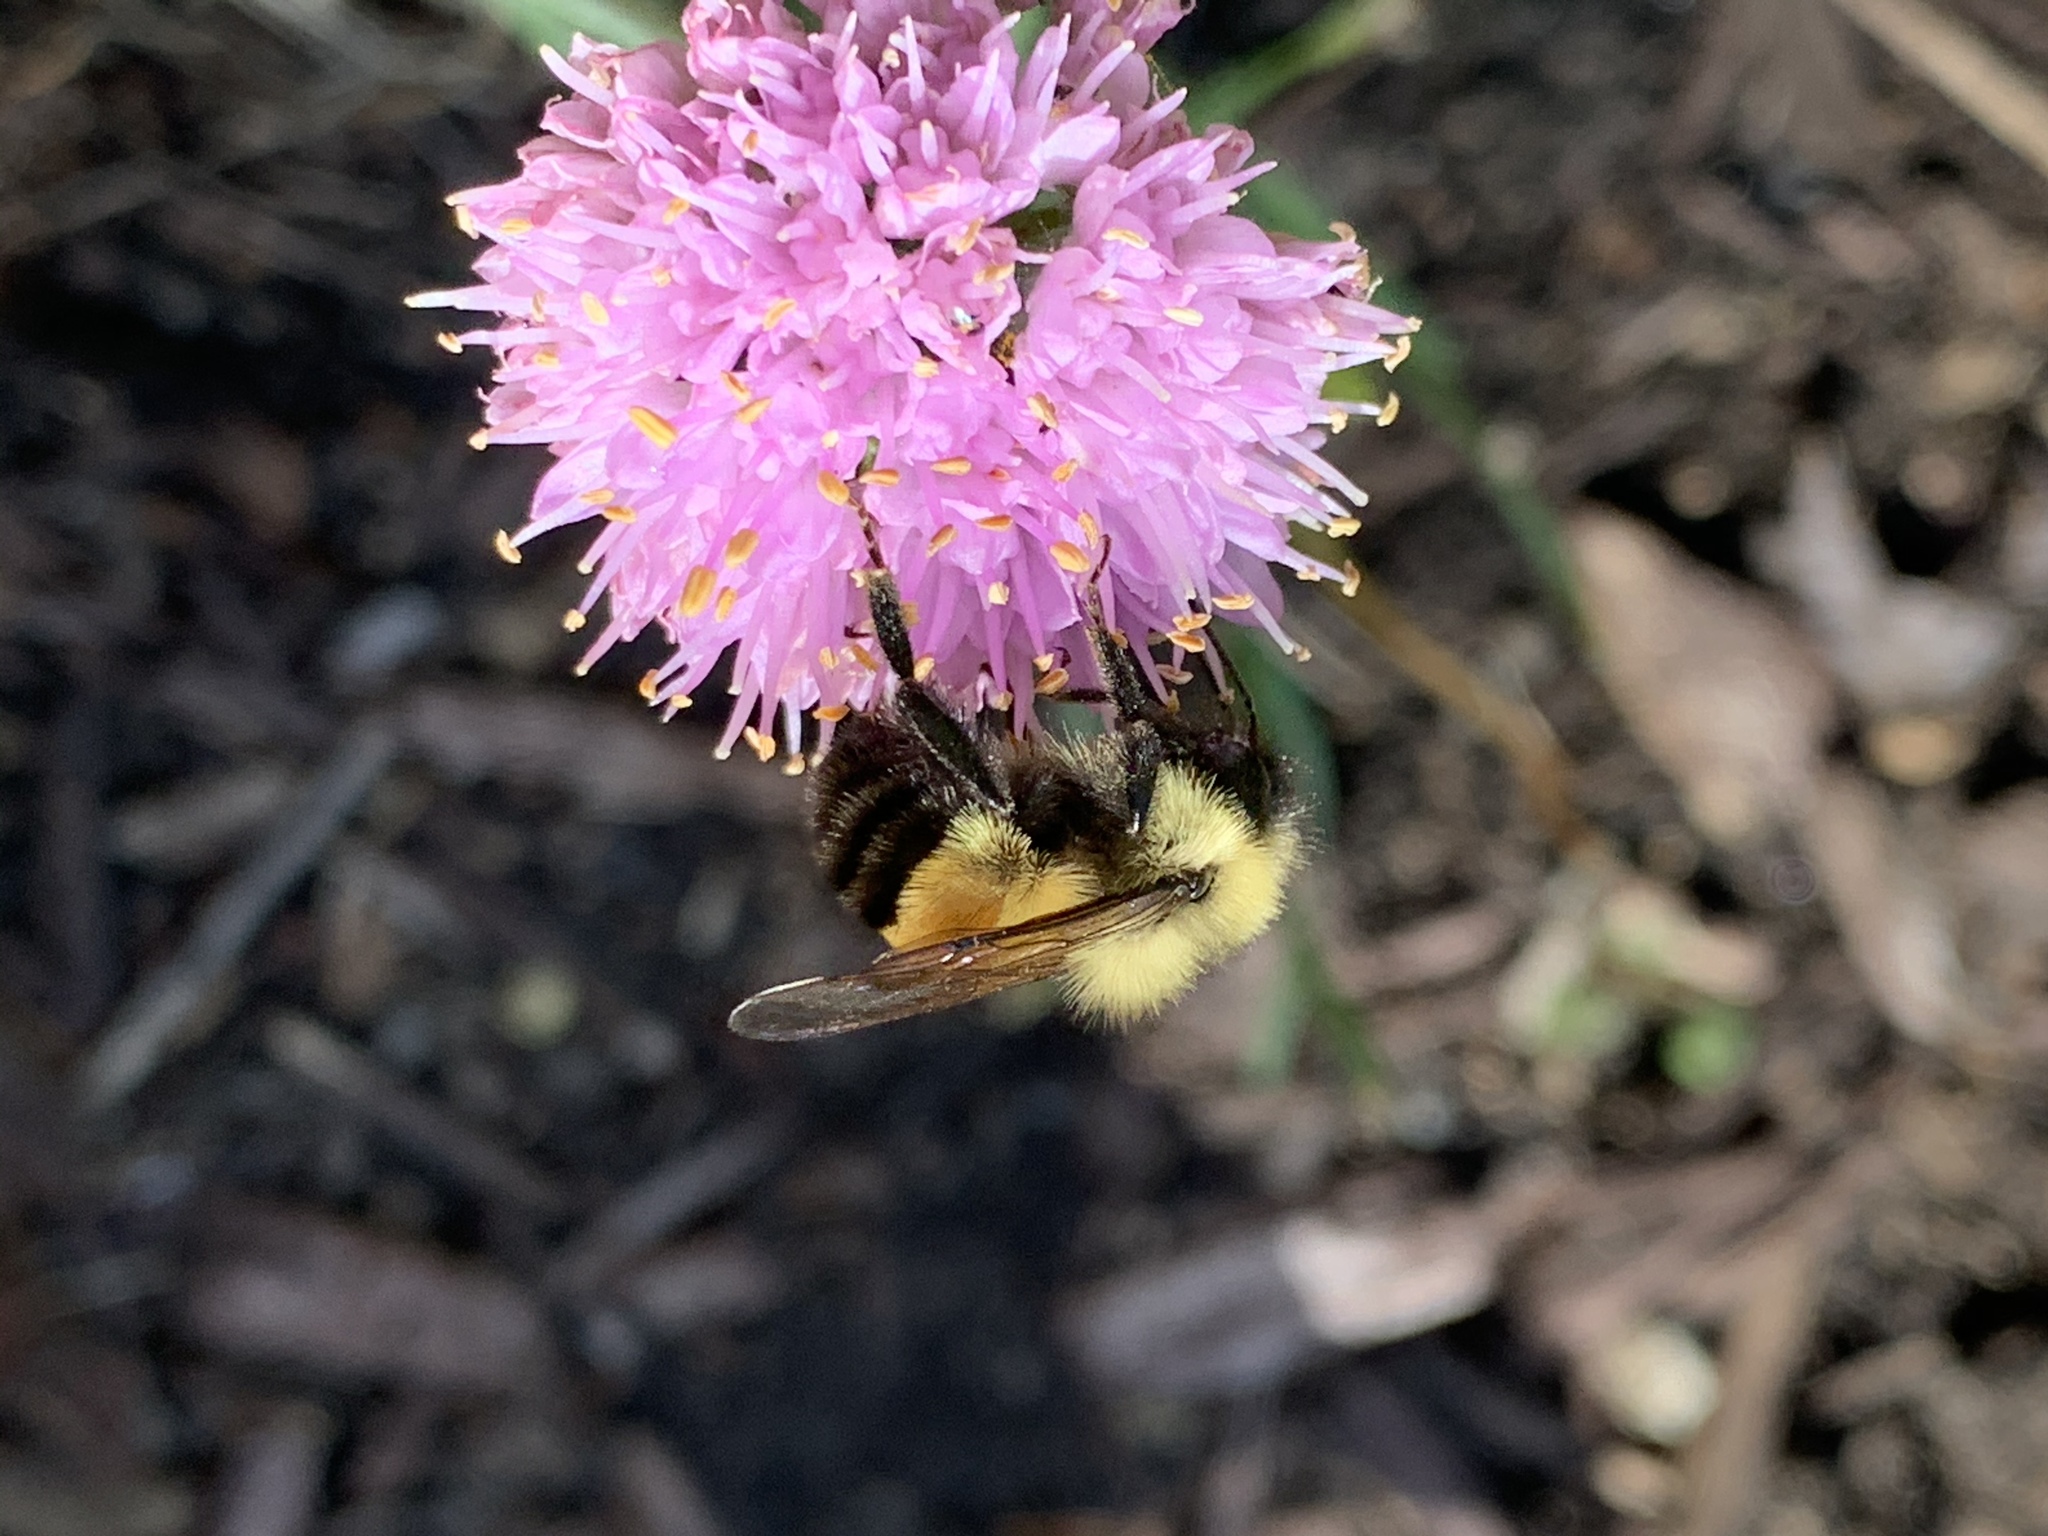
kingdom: Animalia
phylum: Arthropoda
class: Insecta
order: Hymenoptera
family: Apidae
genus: Bombus
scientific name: Bombus affinis
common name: Rusty patched bumble bee
